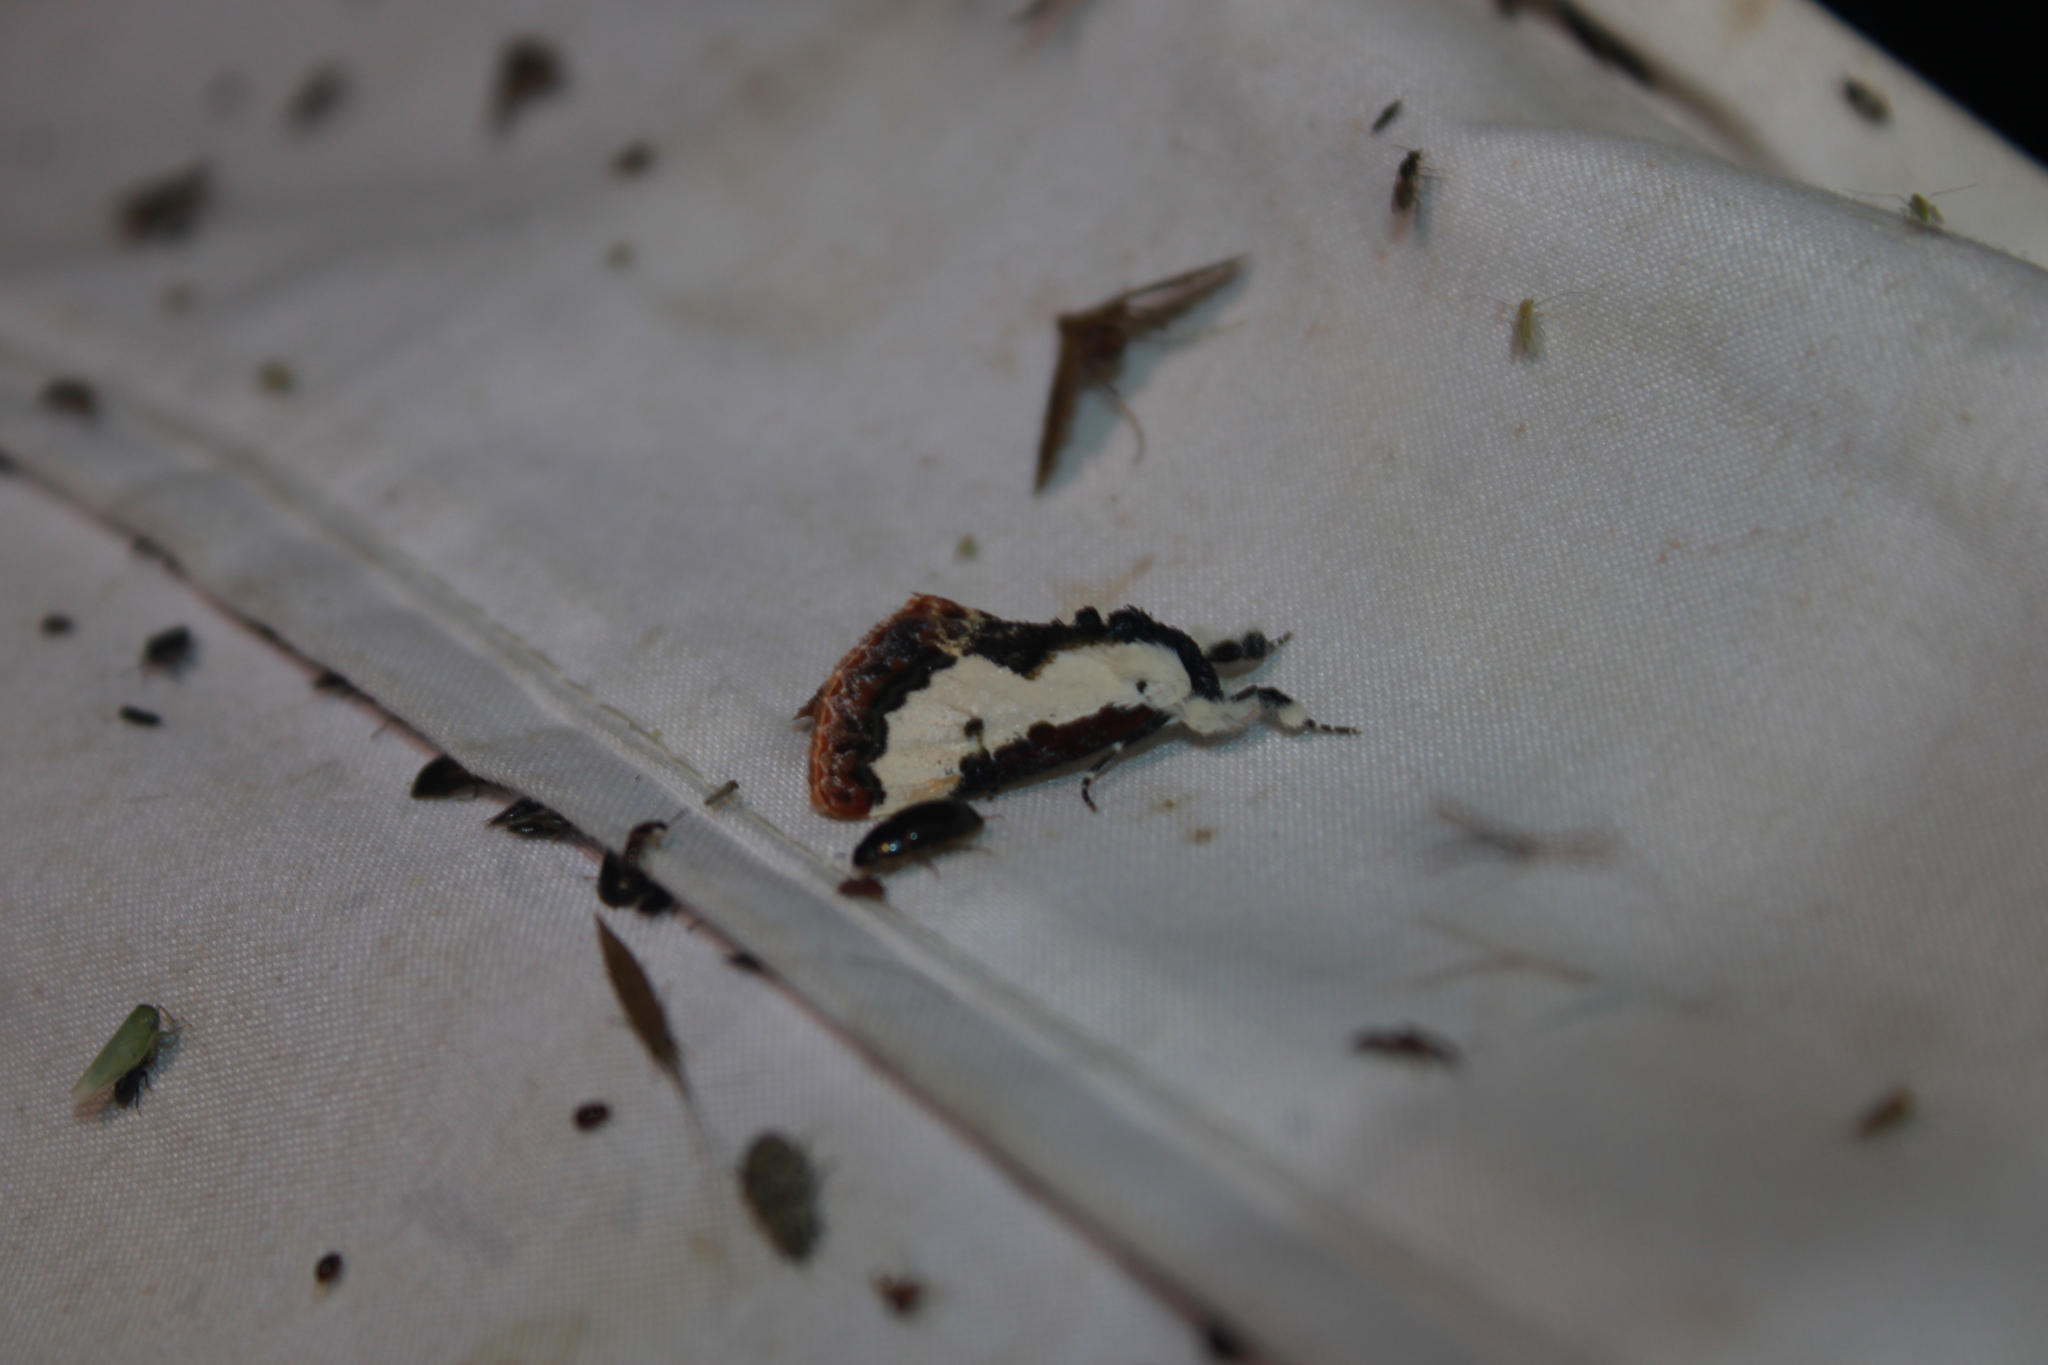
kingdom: Animalia
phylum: Arthropoda
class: Insecta
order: Lepidoptera
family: Noctuidae
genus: Eudryas
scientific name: Eudryas unio
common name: Pearly wood-nymph
